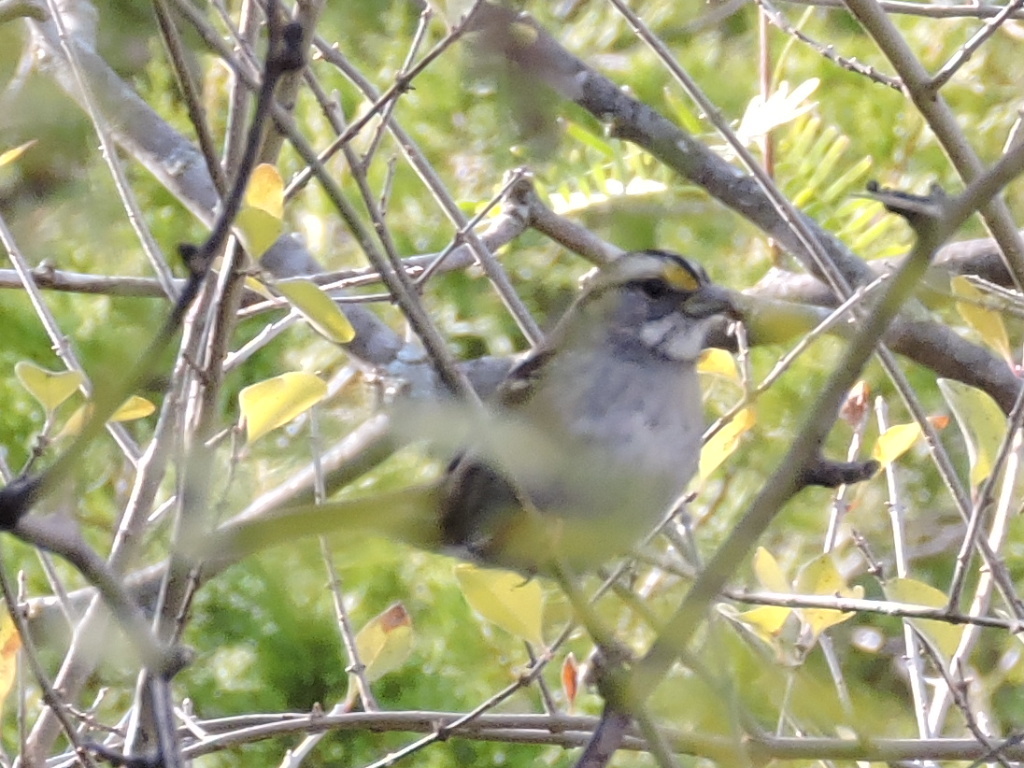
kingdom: Animalia
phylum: Chordata
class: Aves
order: Passeriformes
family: Passerellidae
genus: Zonotrichia
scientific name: Zonotrichia albicollis
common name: White-throated sparrow
